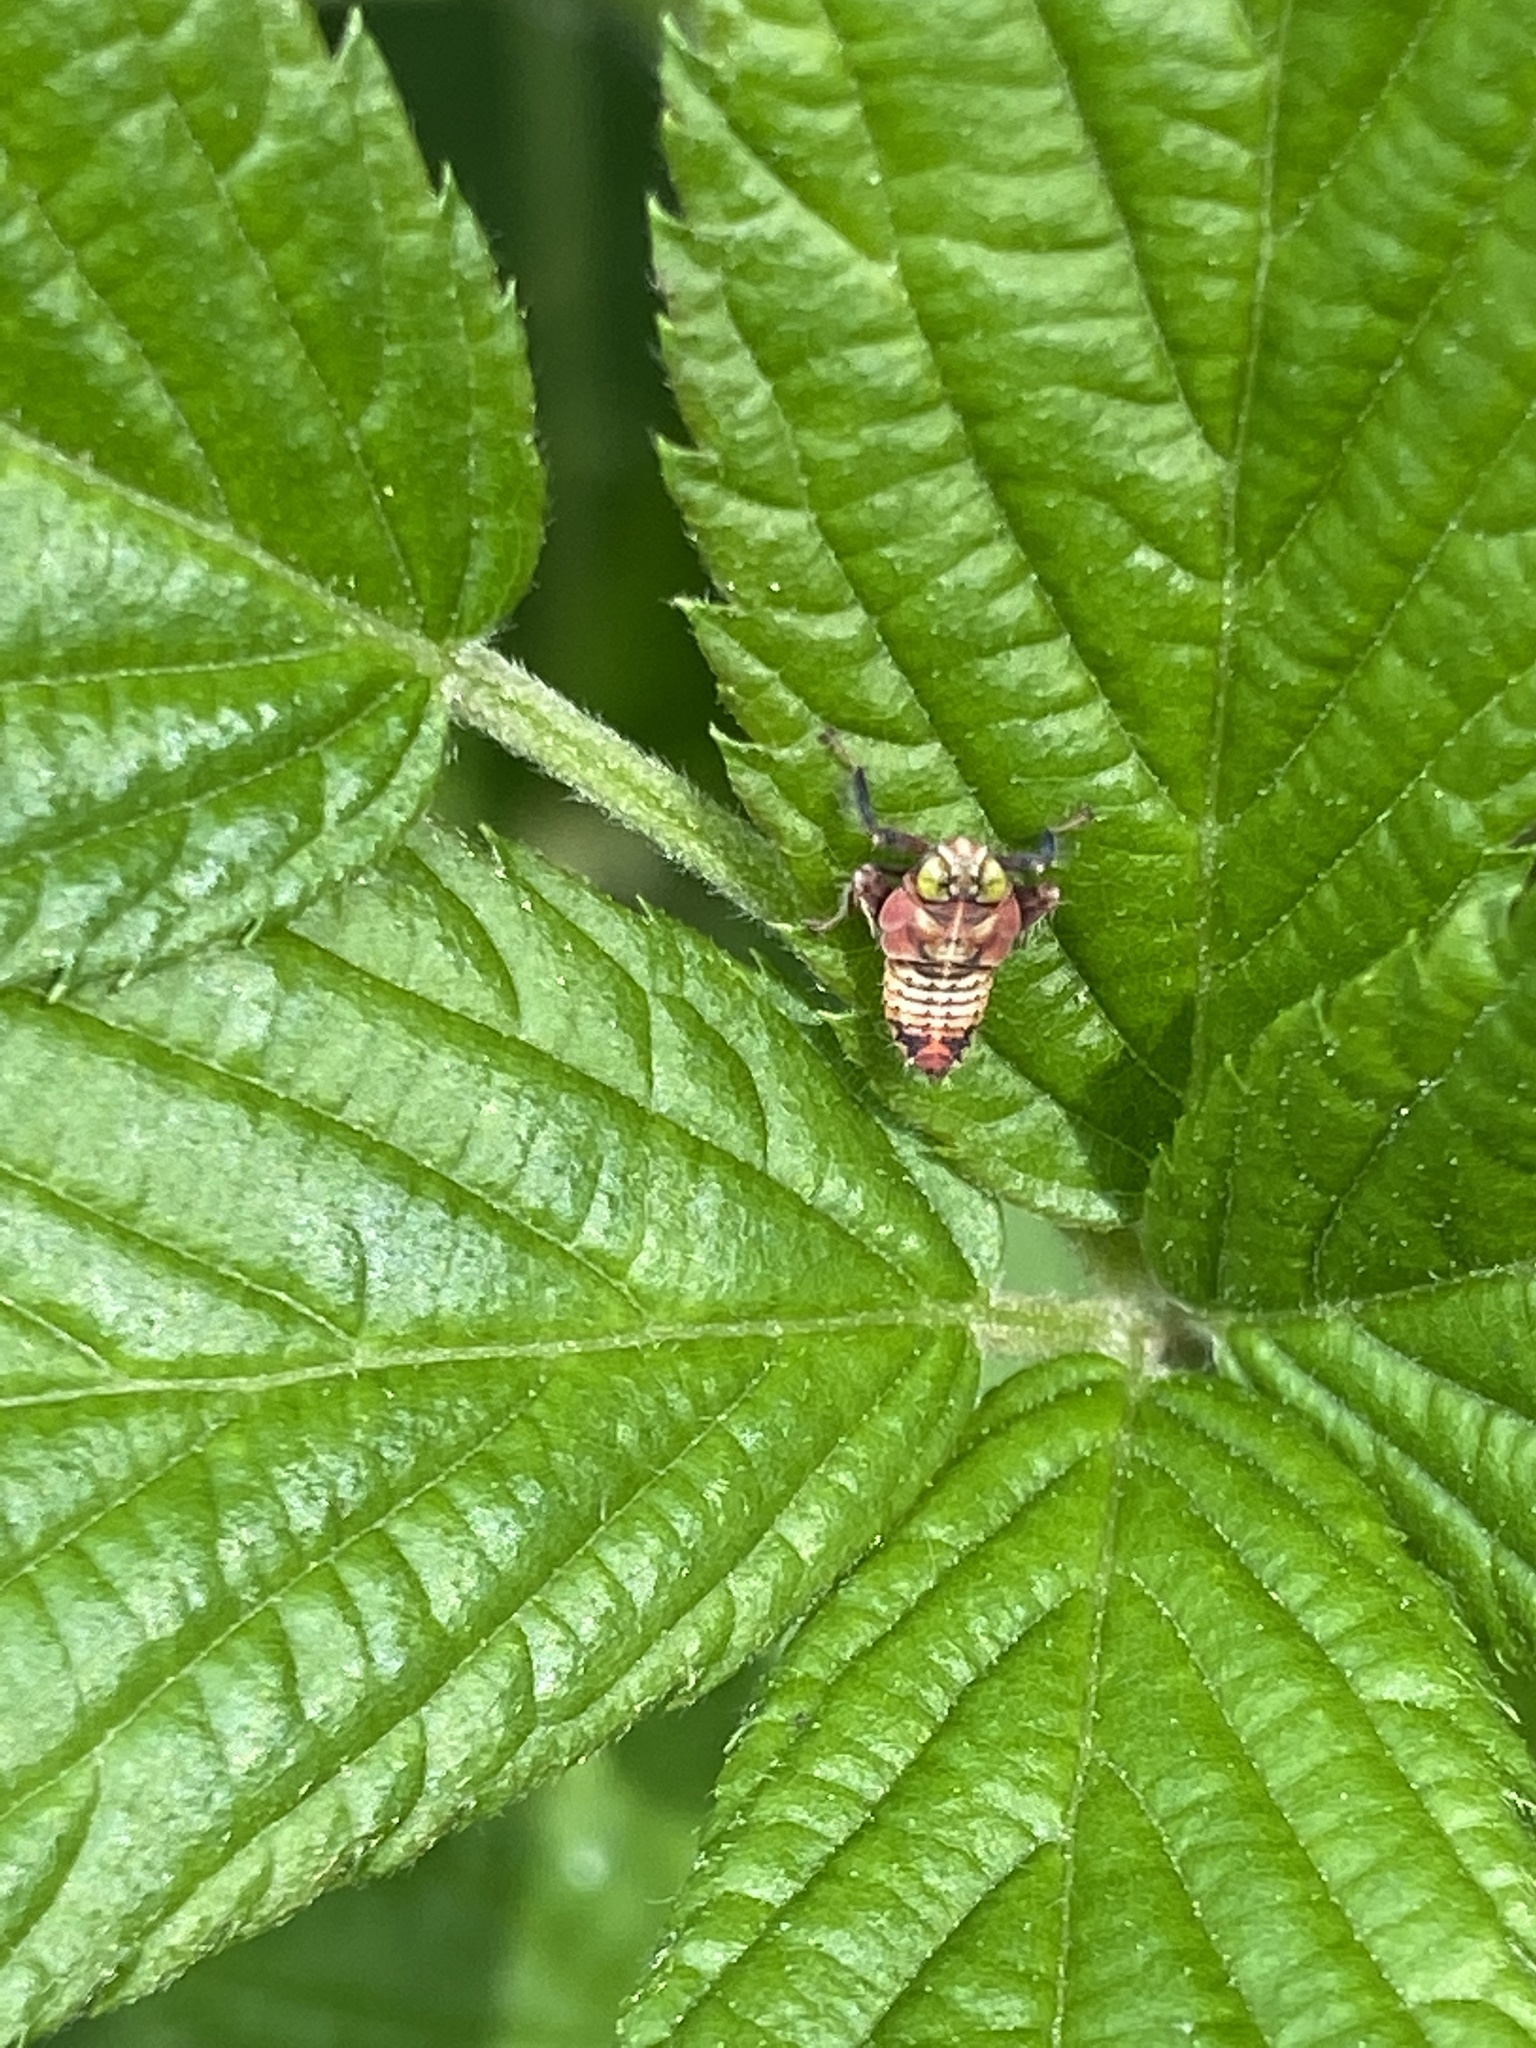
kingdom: Animalia
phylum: Arthropoda
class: Insecta
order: Hemiptera
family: Cicadellidae
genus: Jikradia
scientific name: Jikradia olitoria
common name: Coppery leafhopper
